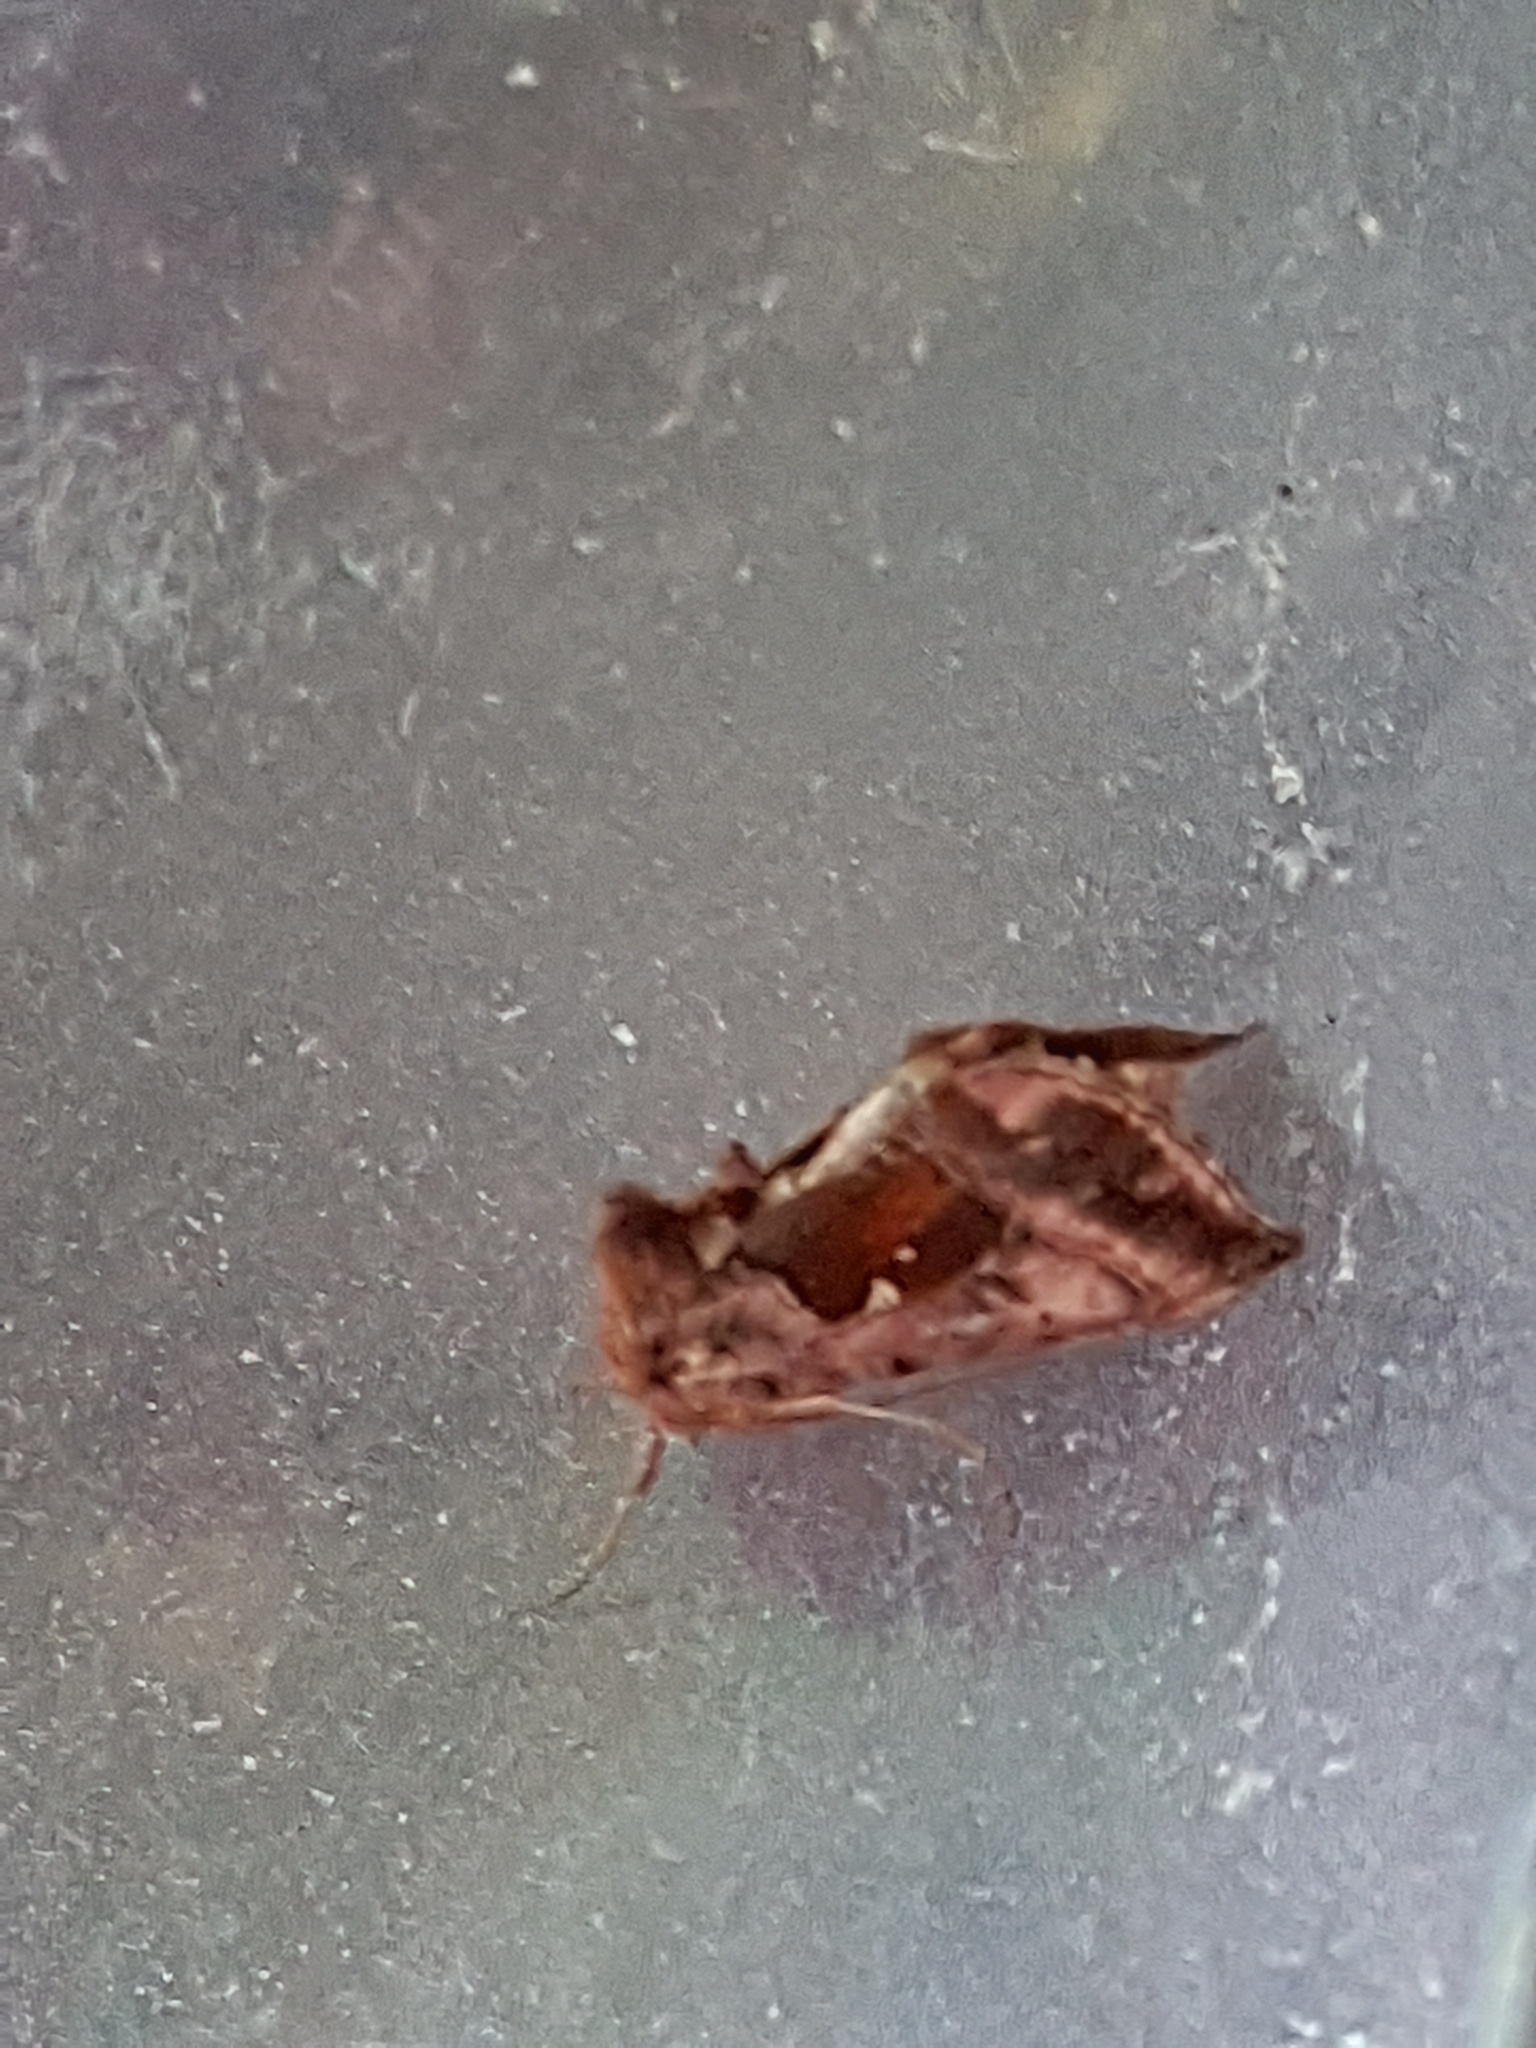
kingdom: Animalia
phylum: Arthropoda
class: Insecta
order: Lepidoptera
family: Noctuidae
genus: Autographa
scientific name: Autographa jota
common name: Plain golden y
